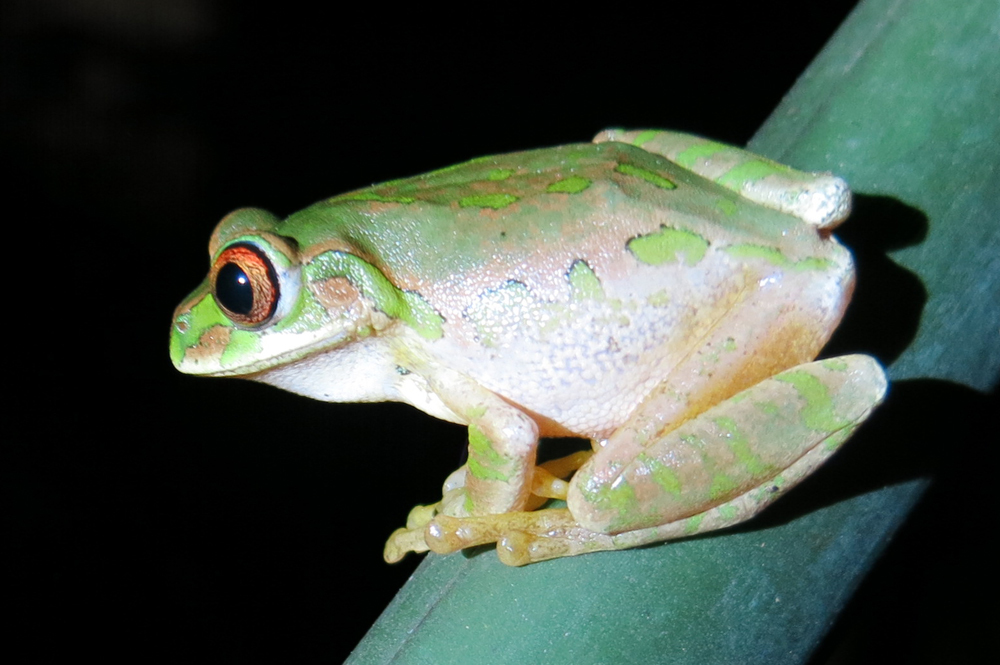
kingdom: Animalia
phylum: Chordata
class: Amphibia
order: Anura
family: Arthroleptidae
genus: Leptopelis
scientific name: Leptopelis natalensis
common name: Natal tree frog
